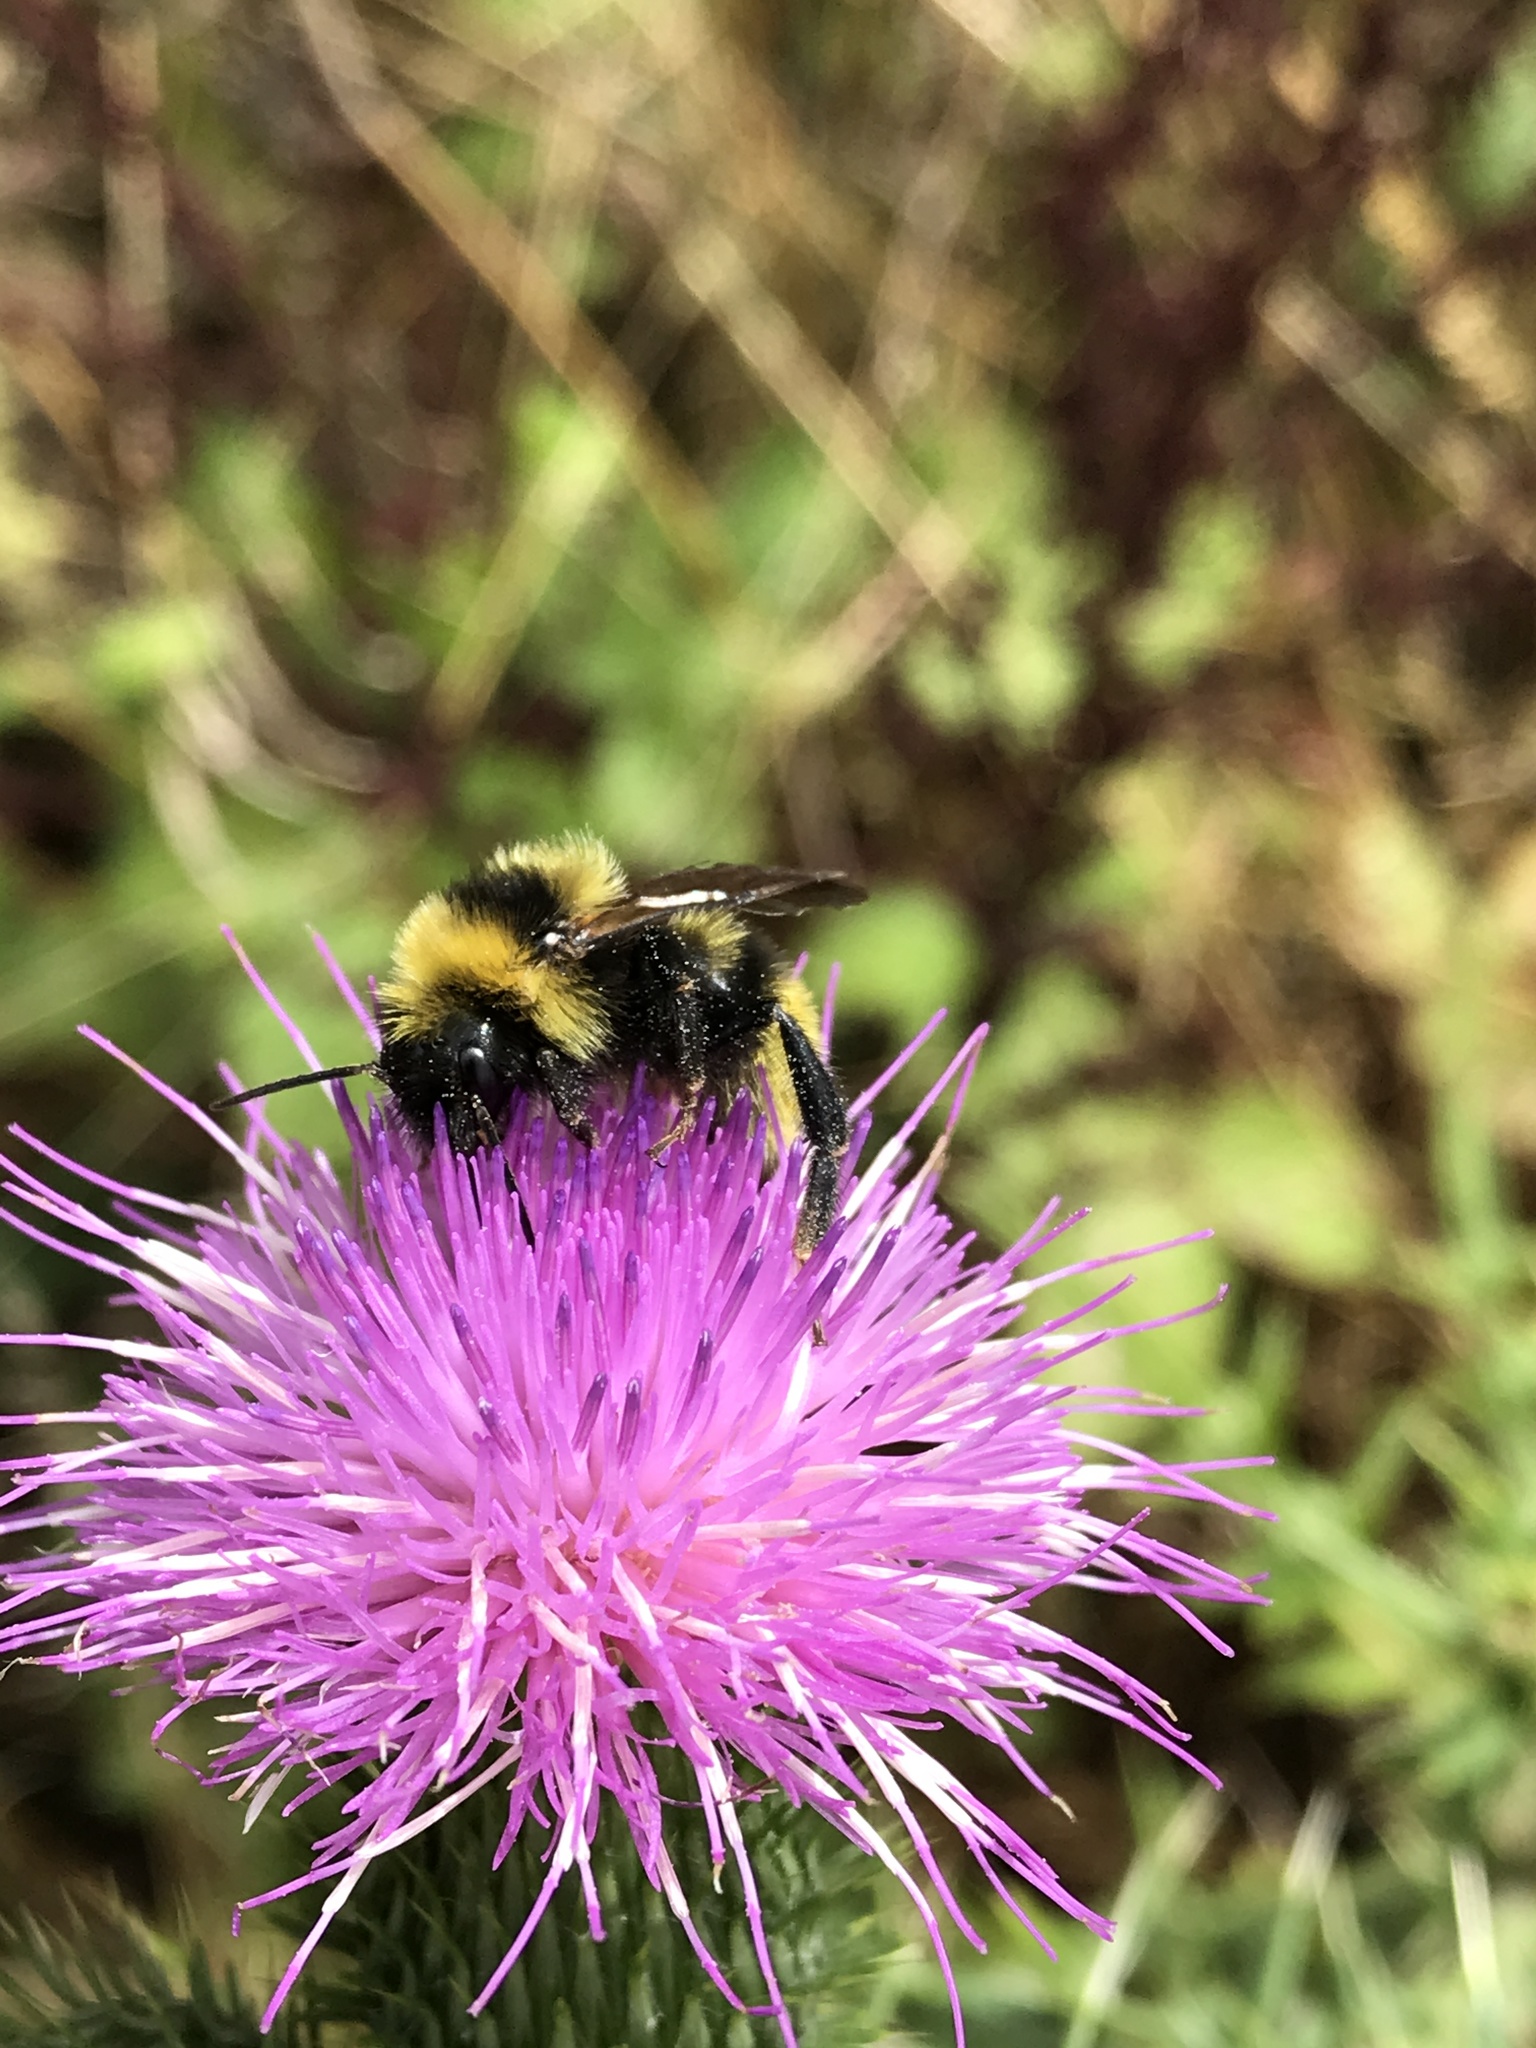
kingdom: Animalia
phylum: Arthropoda
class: Insecta
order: Hymenoptera
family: Apidae
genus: Bombus
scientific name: Bombus campestris
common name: Field cuckoo-bee
